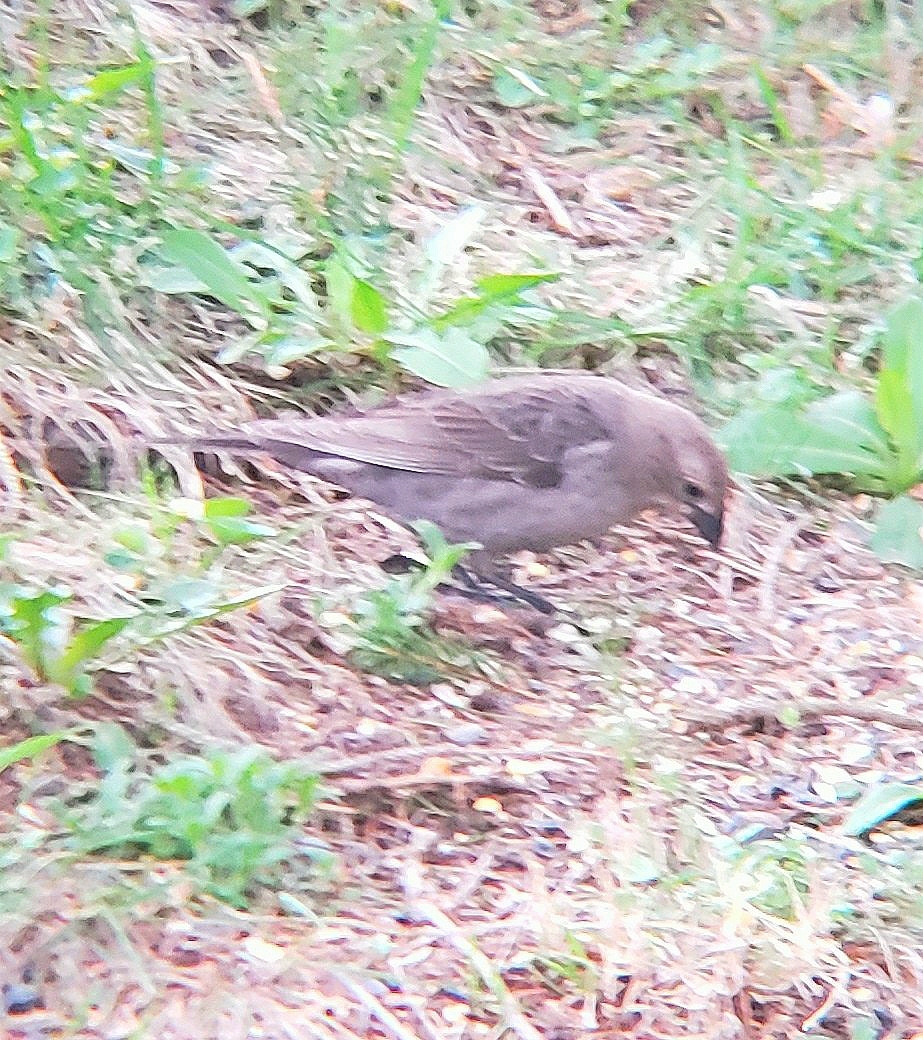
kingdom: Animalia
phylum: Chordata
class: Aves
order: Passeriformes
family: Icteridae
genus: Molothrus
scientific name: Molothrus ater
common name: Brown-headed cowbird
